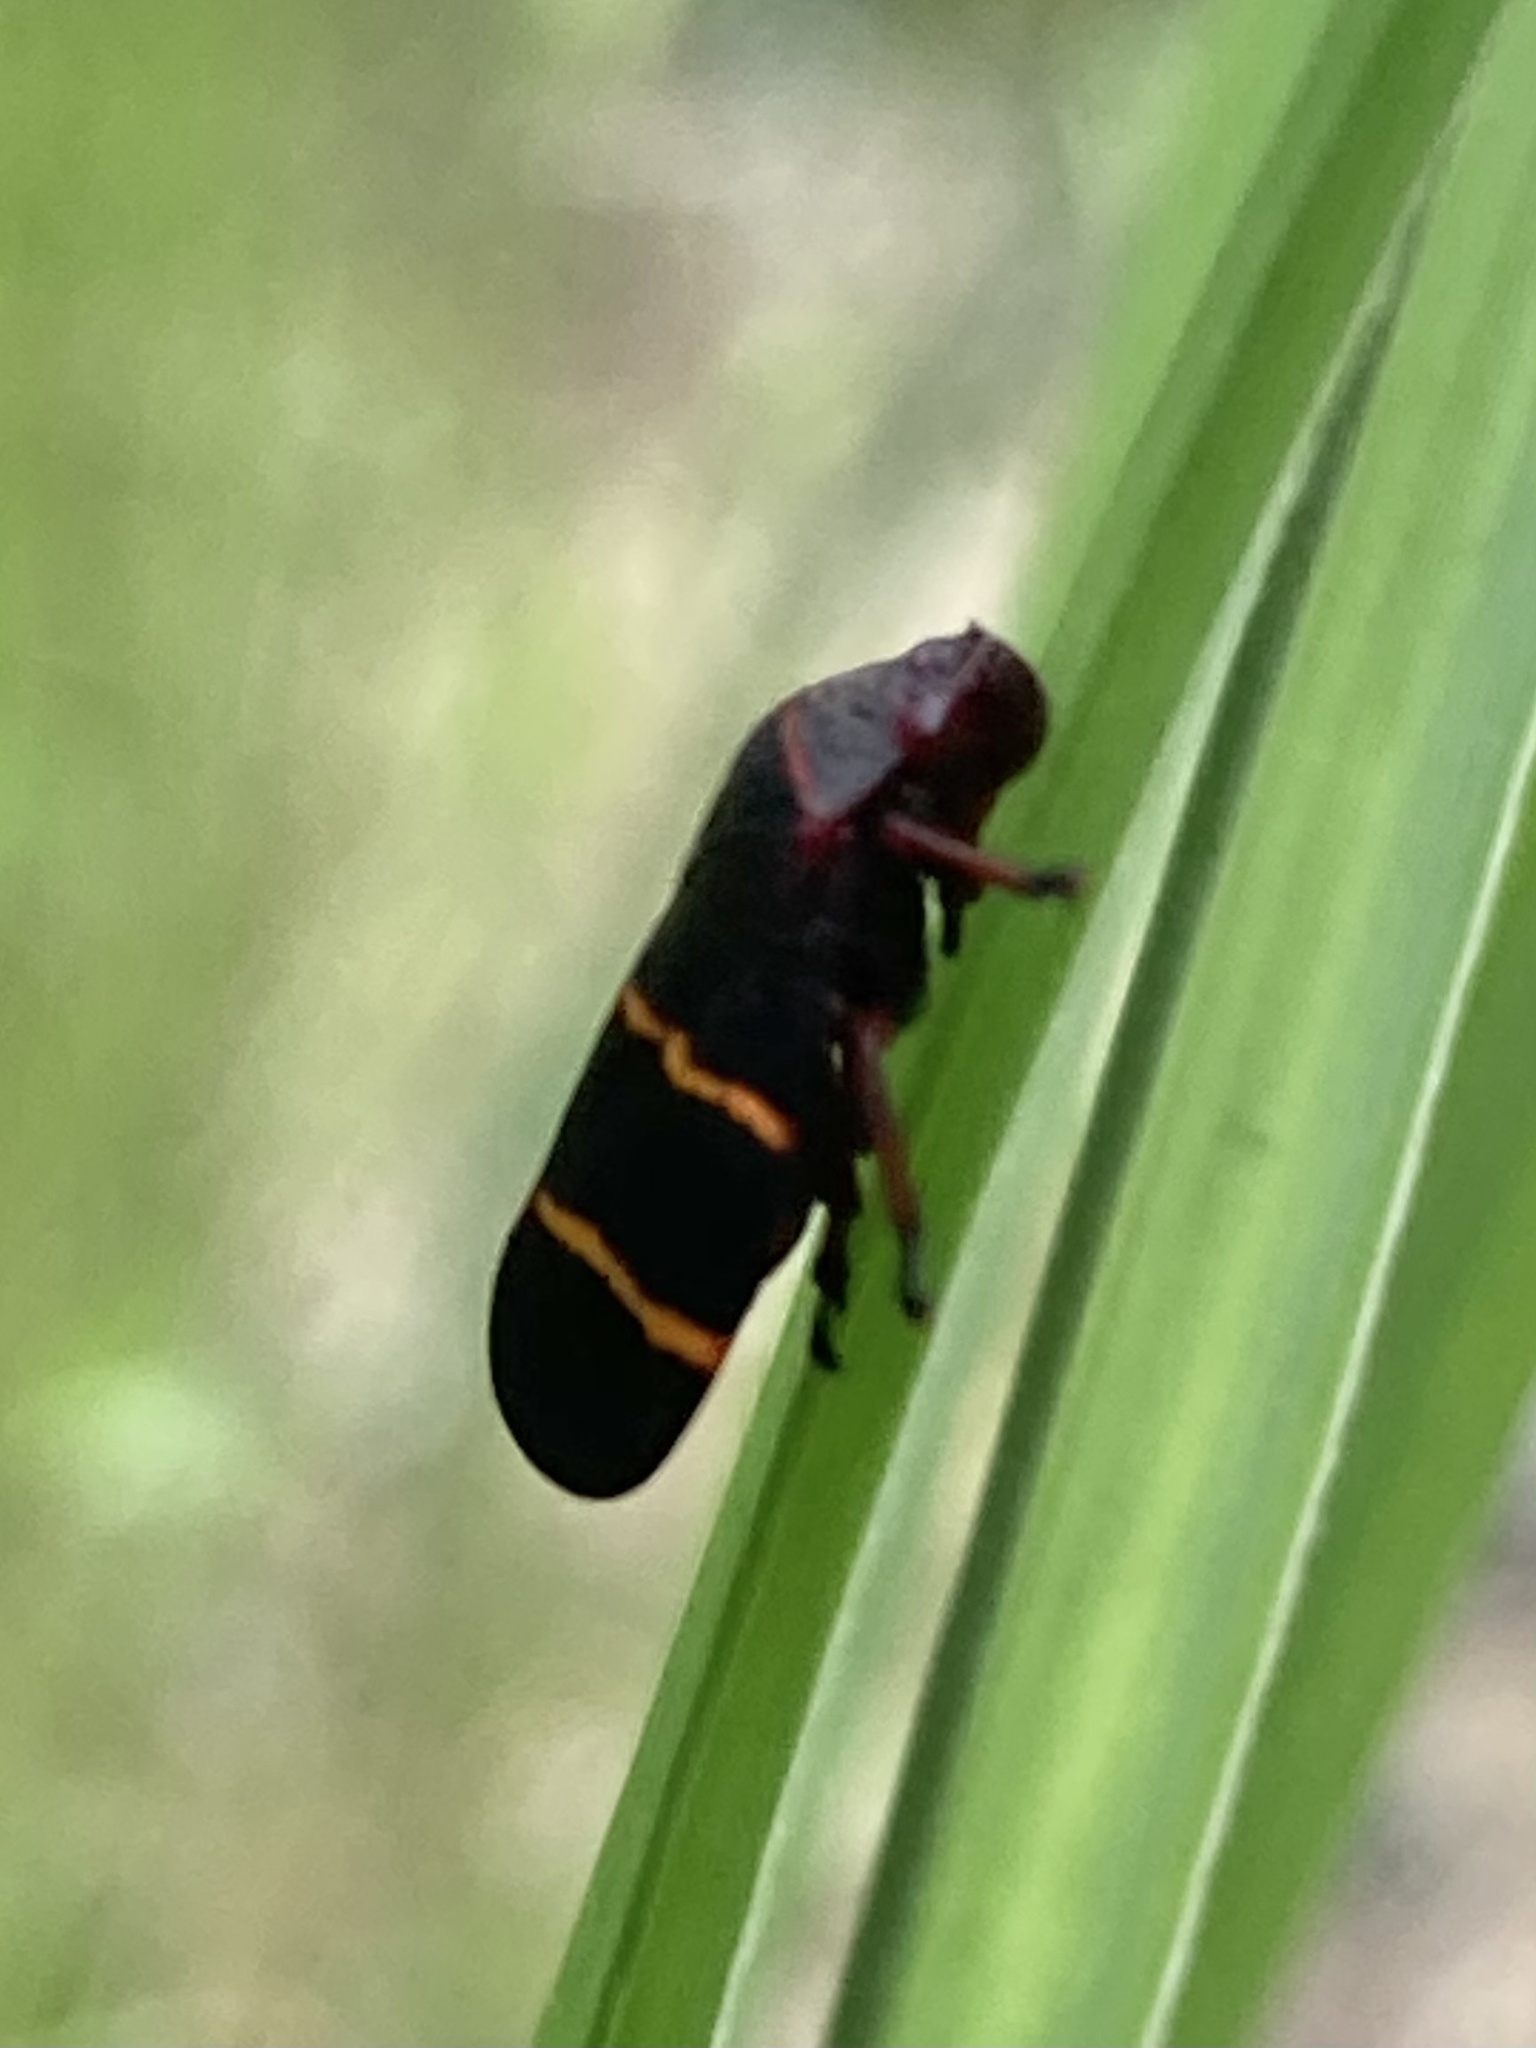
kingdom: Animalia
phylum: Arthropoda
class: Insecta
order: Hemiptera
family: Cercopidae
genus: Prosapia
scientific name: Prosapia bicincta
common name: Twolined spittlebug
